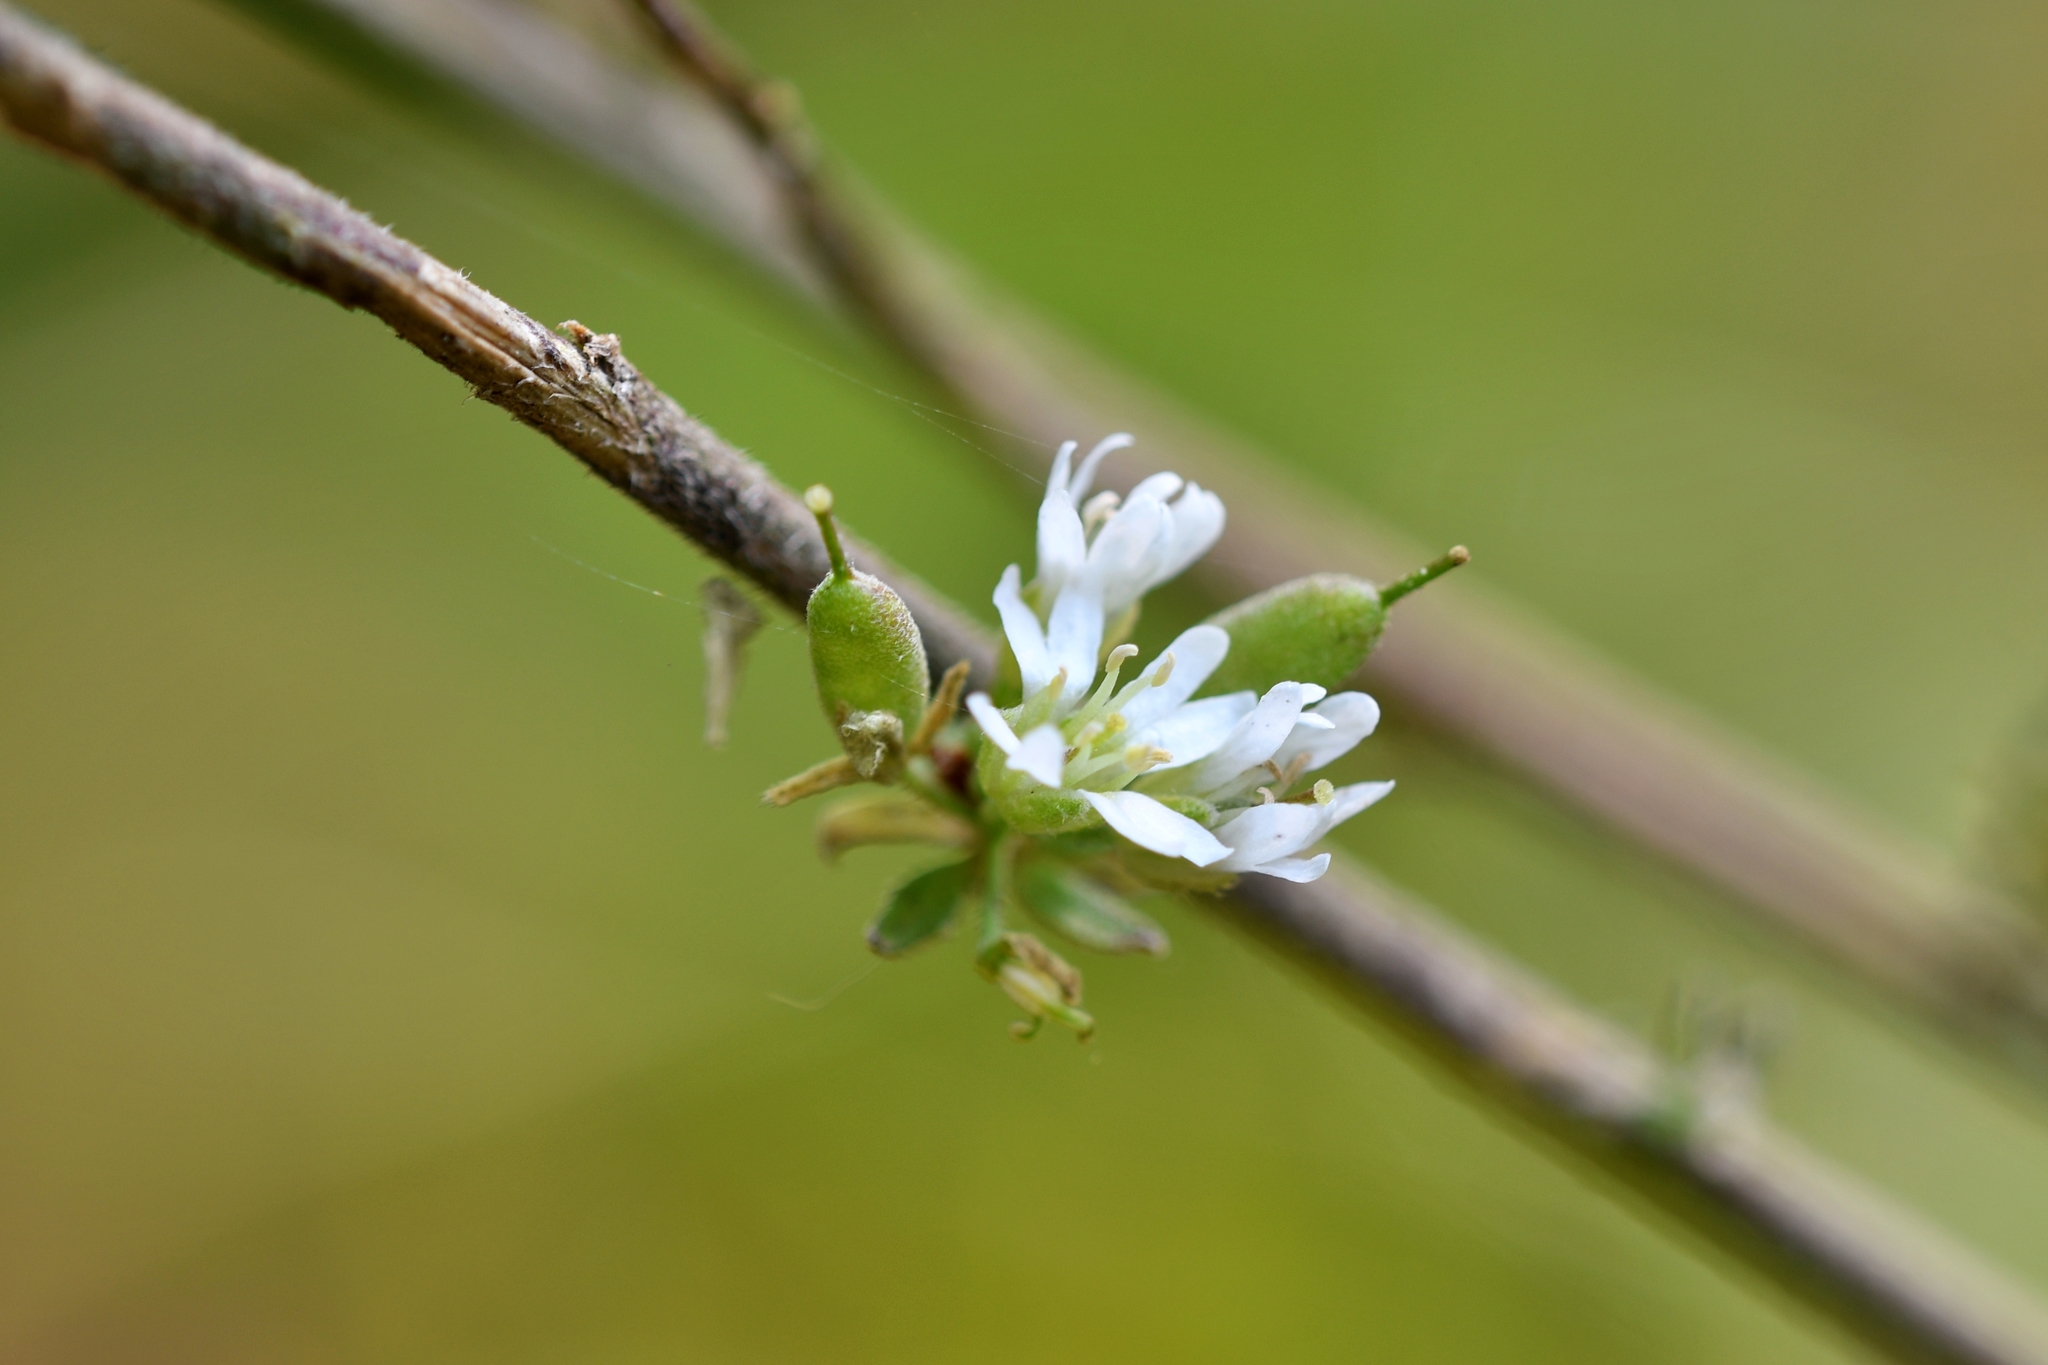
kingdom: Plantae
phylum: Tracheophyta
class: Magnoliopsida
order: Brassicales
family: Brassicaceae
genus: Berteroa
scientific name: Berteroa incana
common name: Hoary alison
